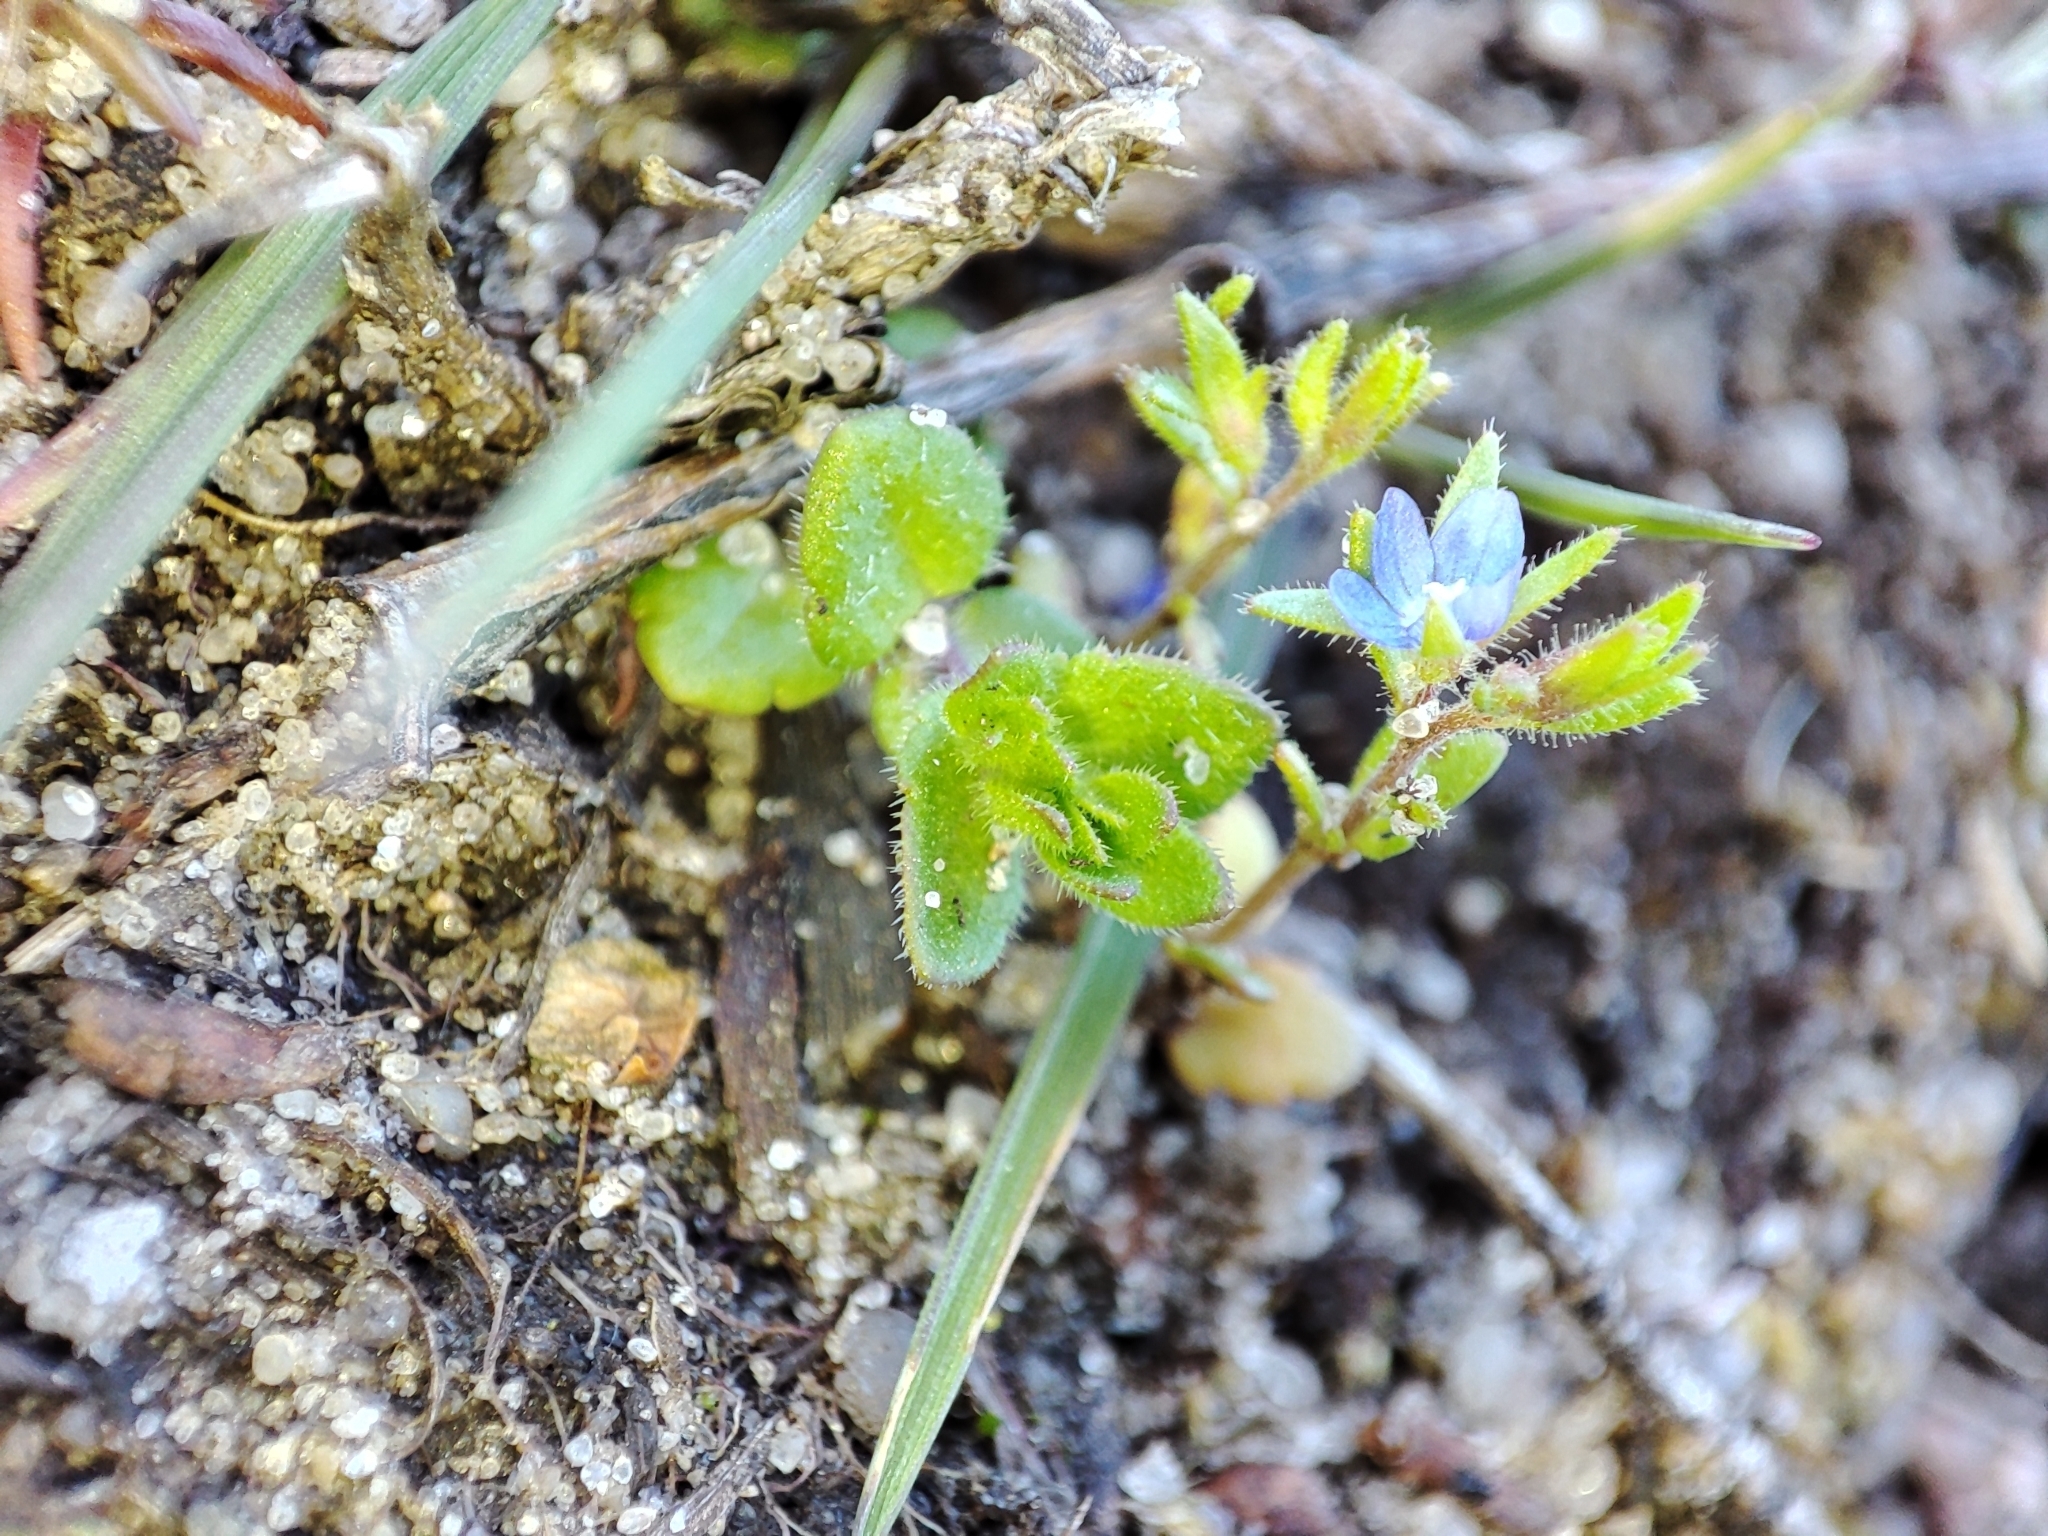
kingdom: Plantae
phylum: Tracheophyta
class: Magnoliopsida
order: Lamiales
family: Plantaginaceae
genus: Veronica
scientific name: Veronica verna
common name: Spring speedwell
